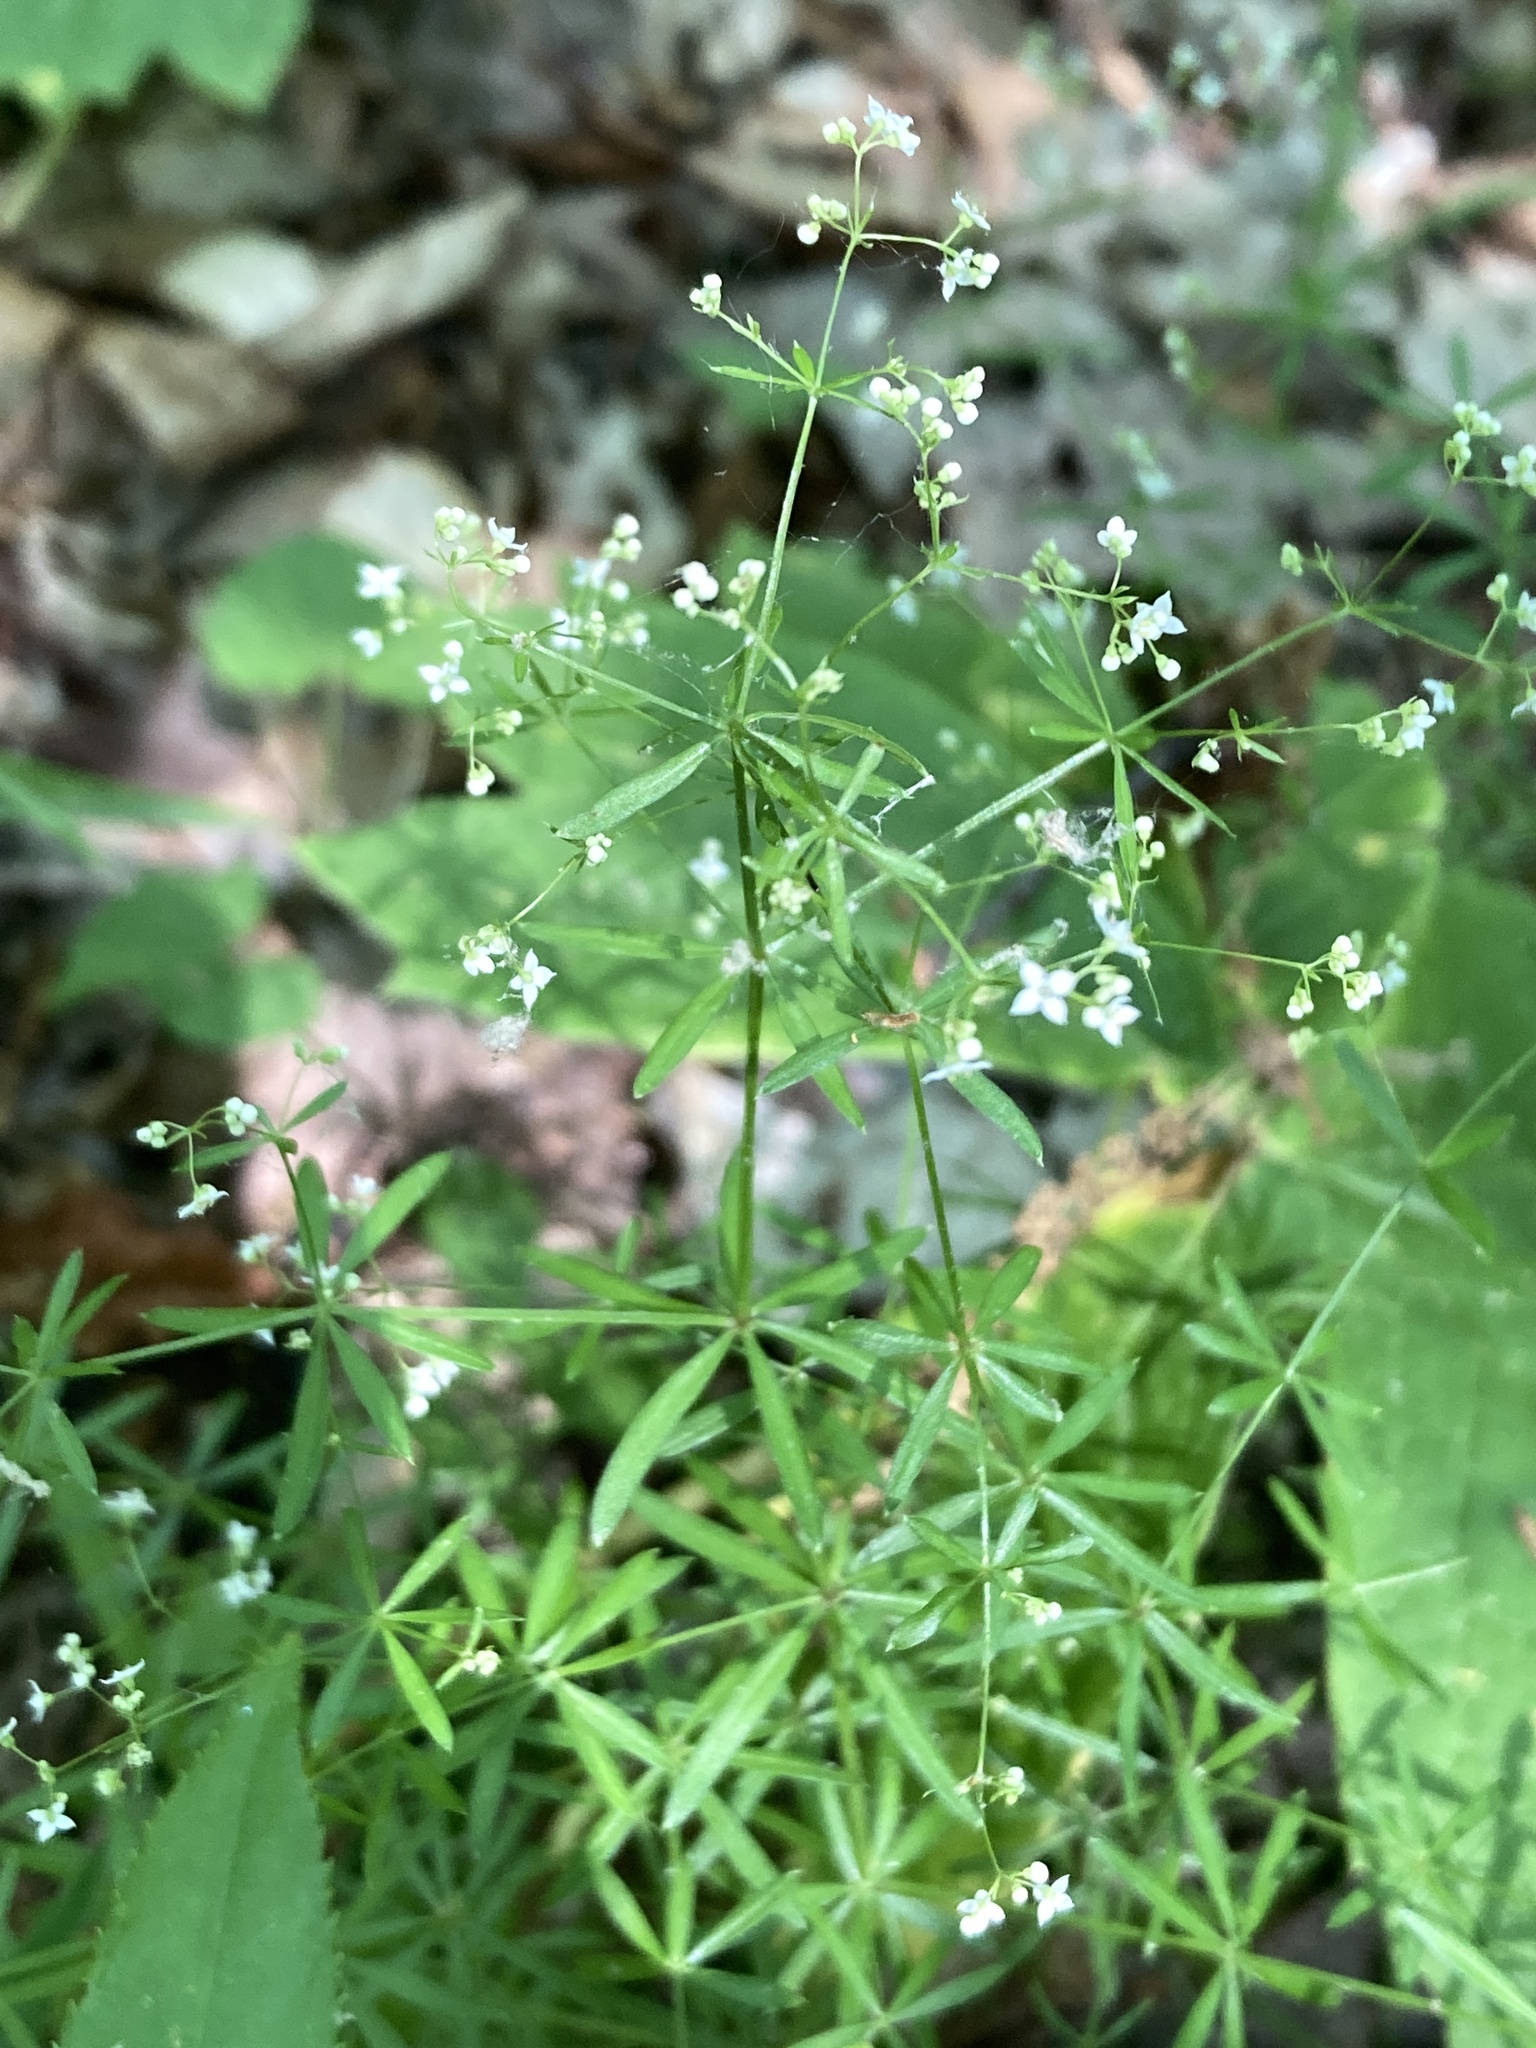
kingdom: Plantae
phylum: Tracheophyta
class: Magnoliopsida
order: Gentianales
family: Rubiaceae
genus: Galium
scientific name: Galium concinnum
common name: Shining bedstraw
